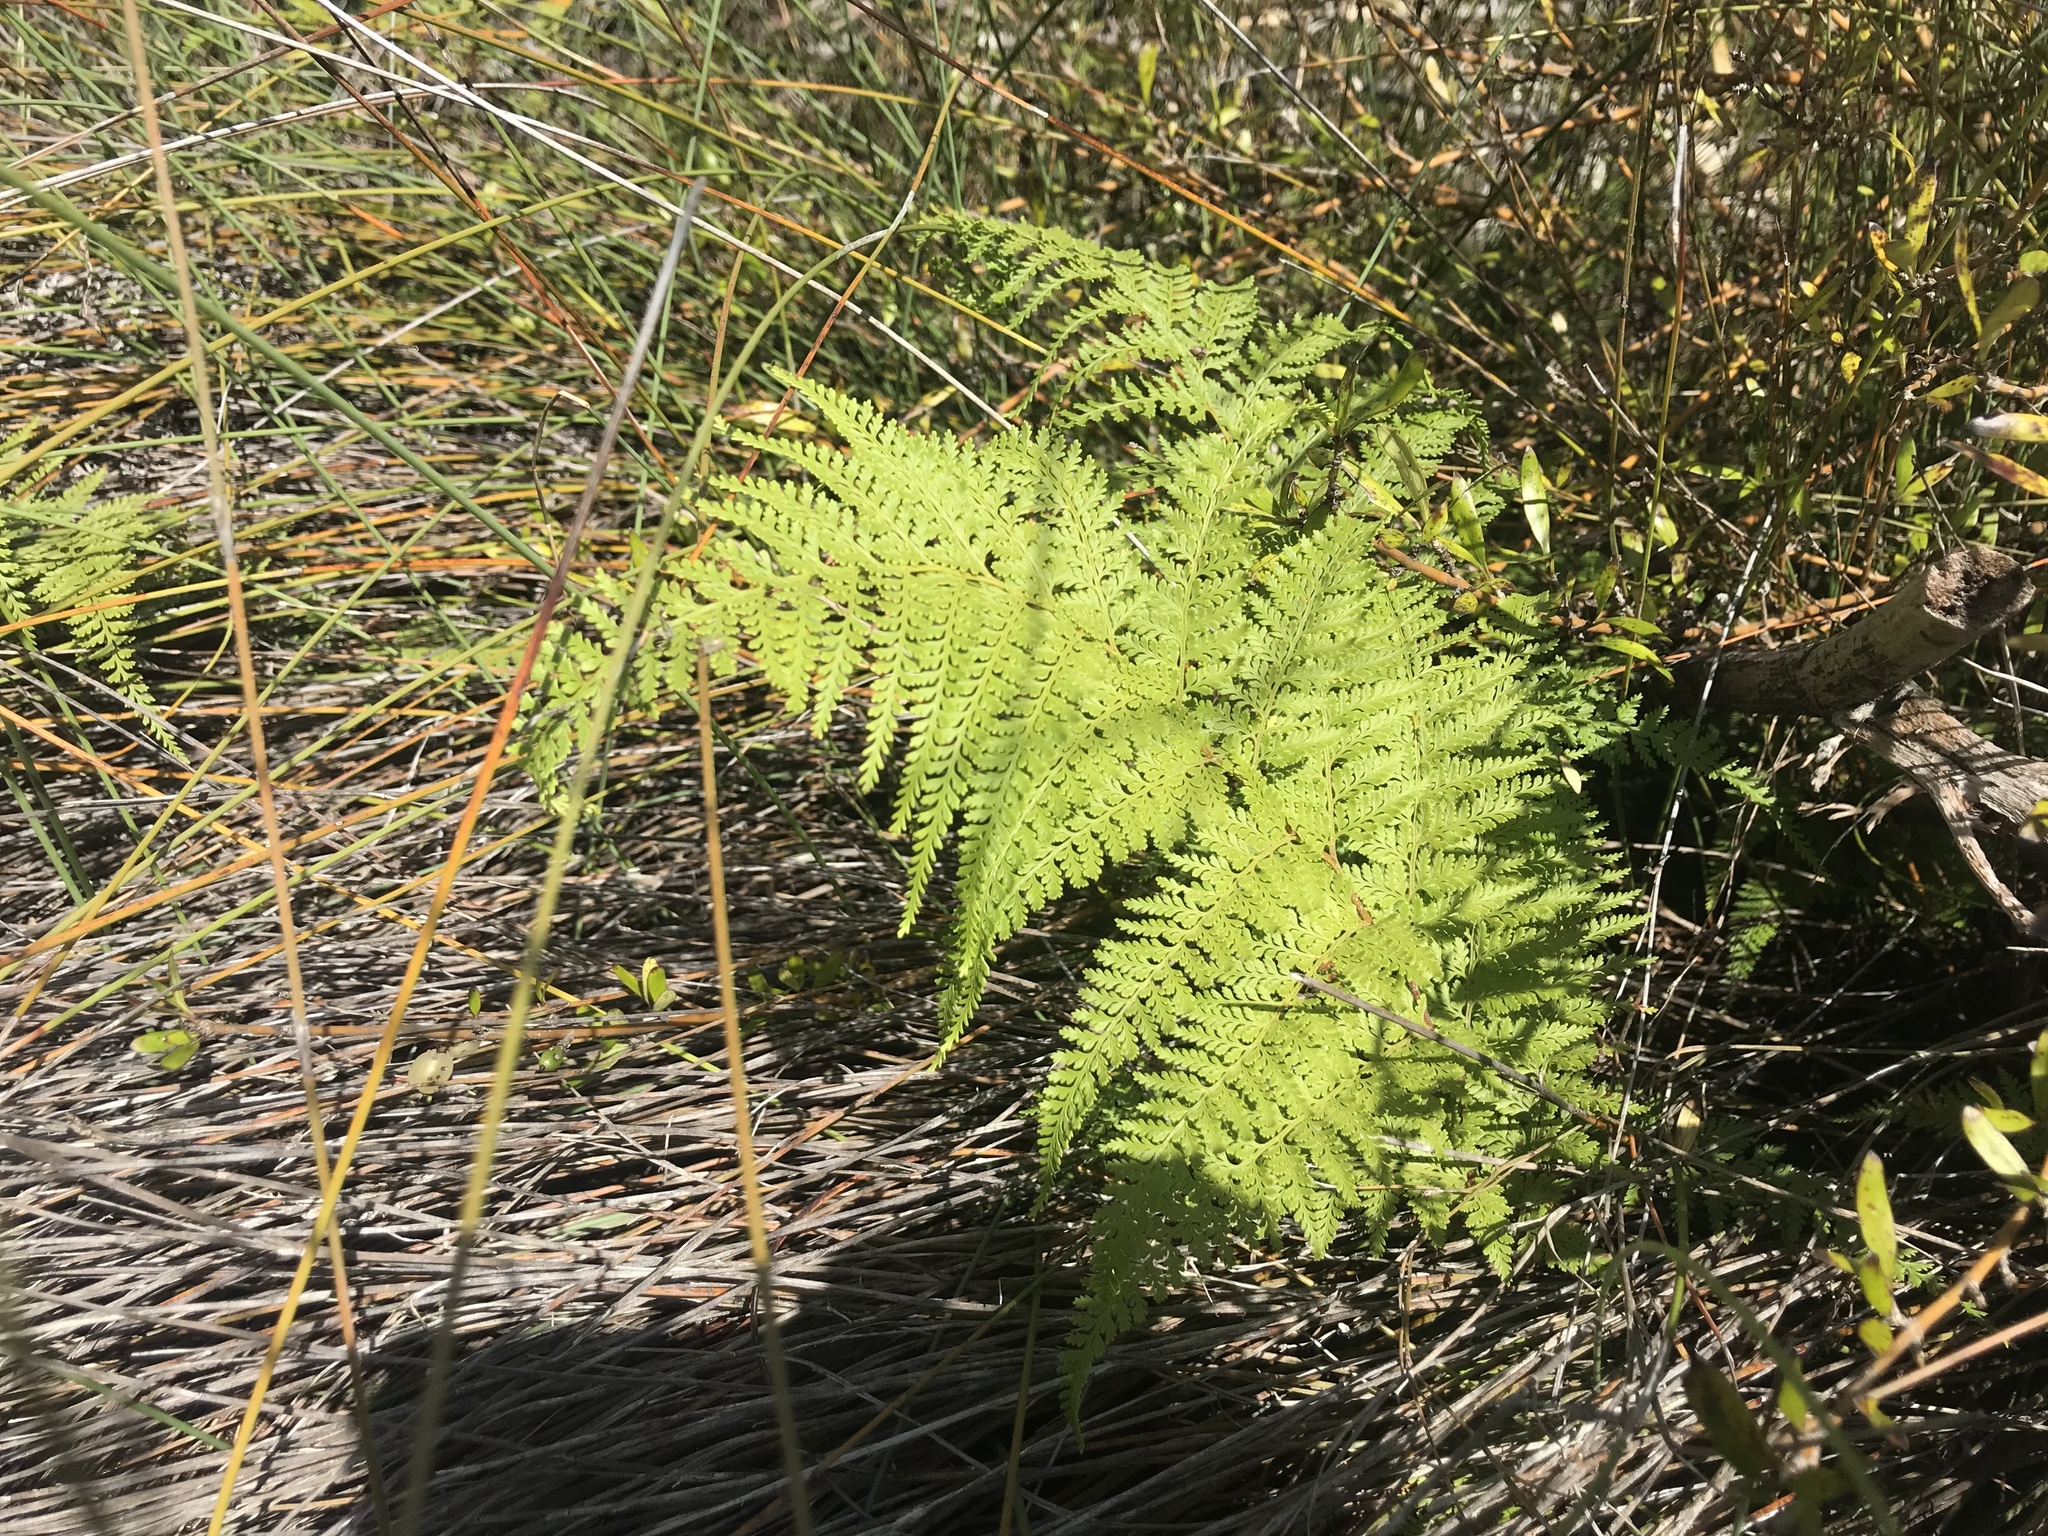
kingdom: Plantae
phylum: Tracheophyta
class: Polypodiopsida
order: Polypodiales
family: Dennstaedtiaceae
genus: Paesia
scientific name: Paesia scaberula
